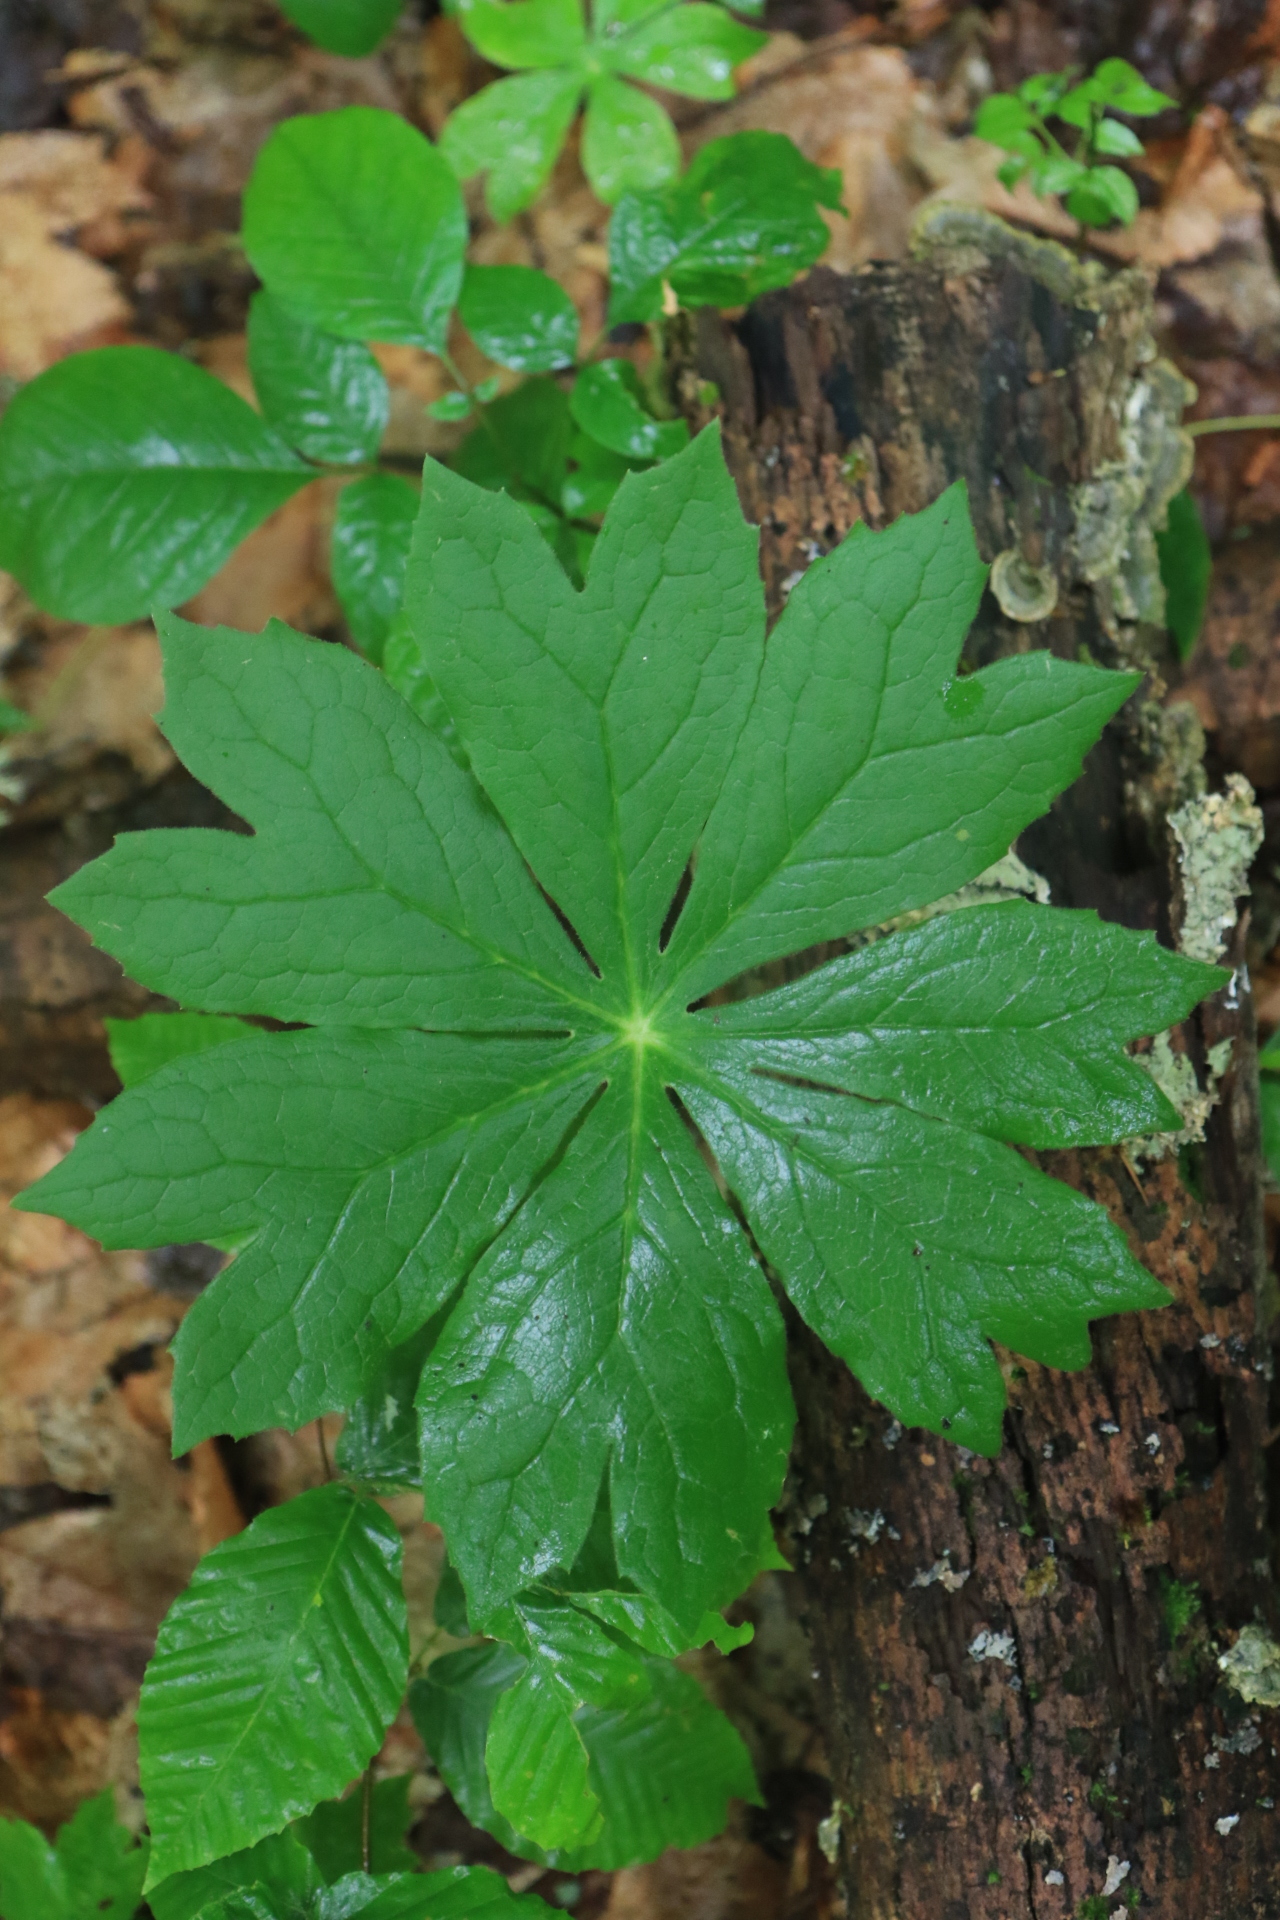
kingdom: Plantae
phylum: Tracheophyta
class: Magnoliopsida
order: Ranunculales
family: Berberidaceae
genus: Podophyllum
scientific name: Podophyllum peltatum
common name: Wild mandrake
